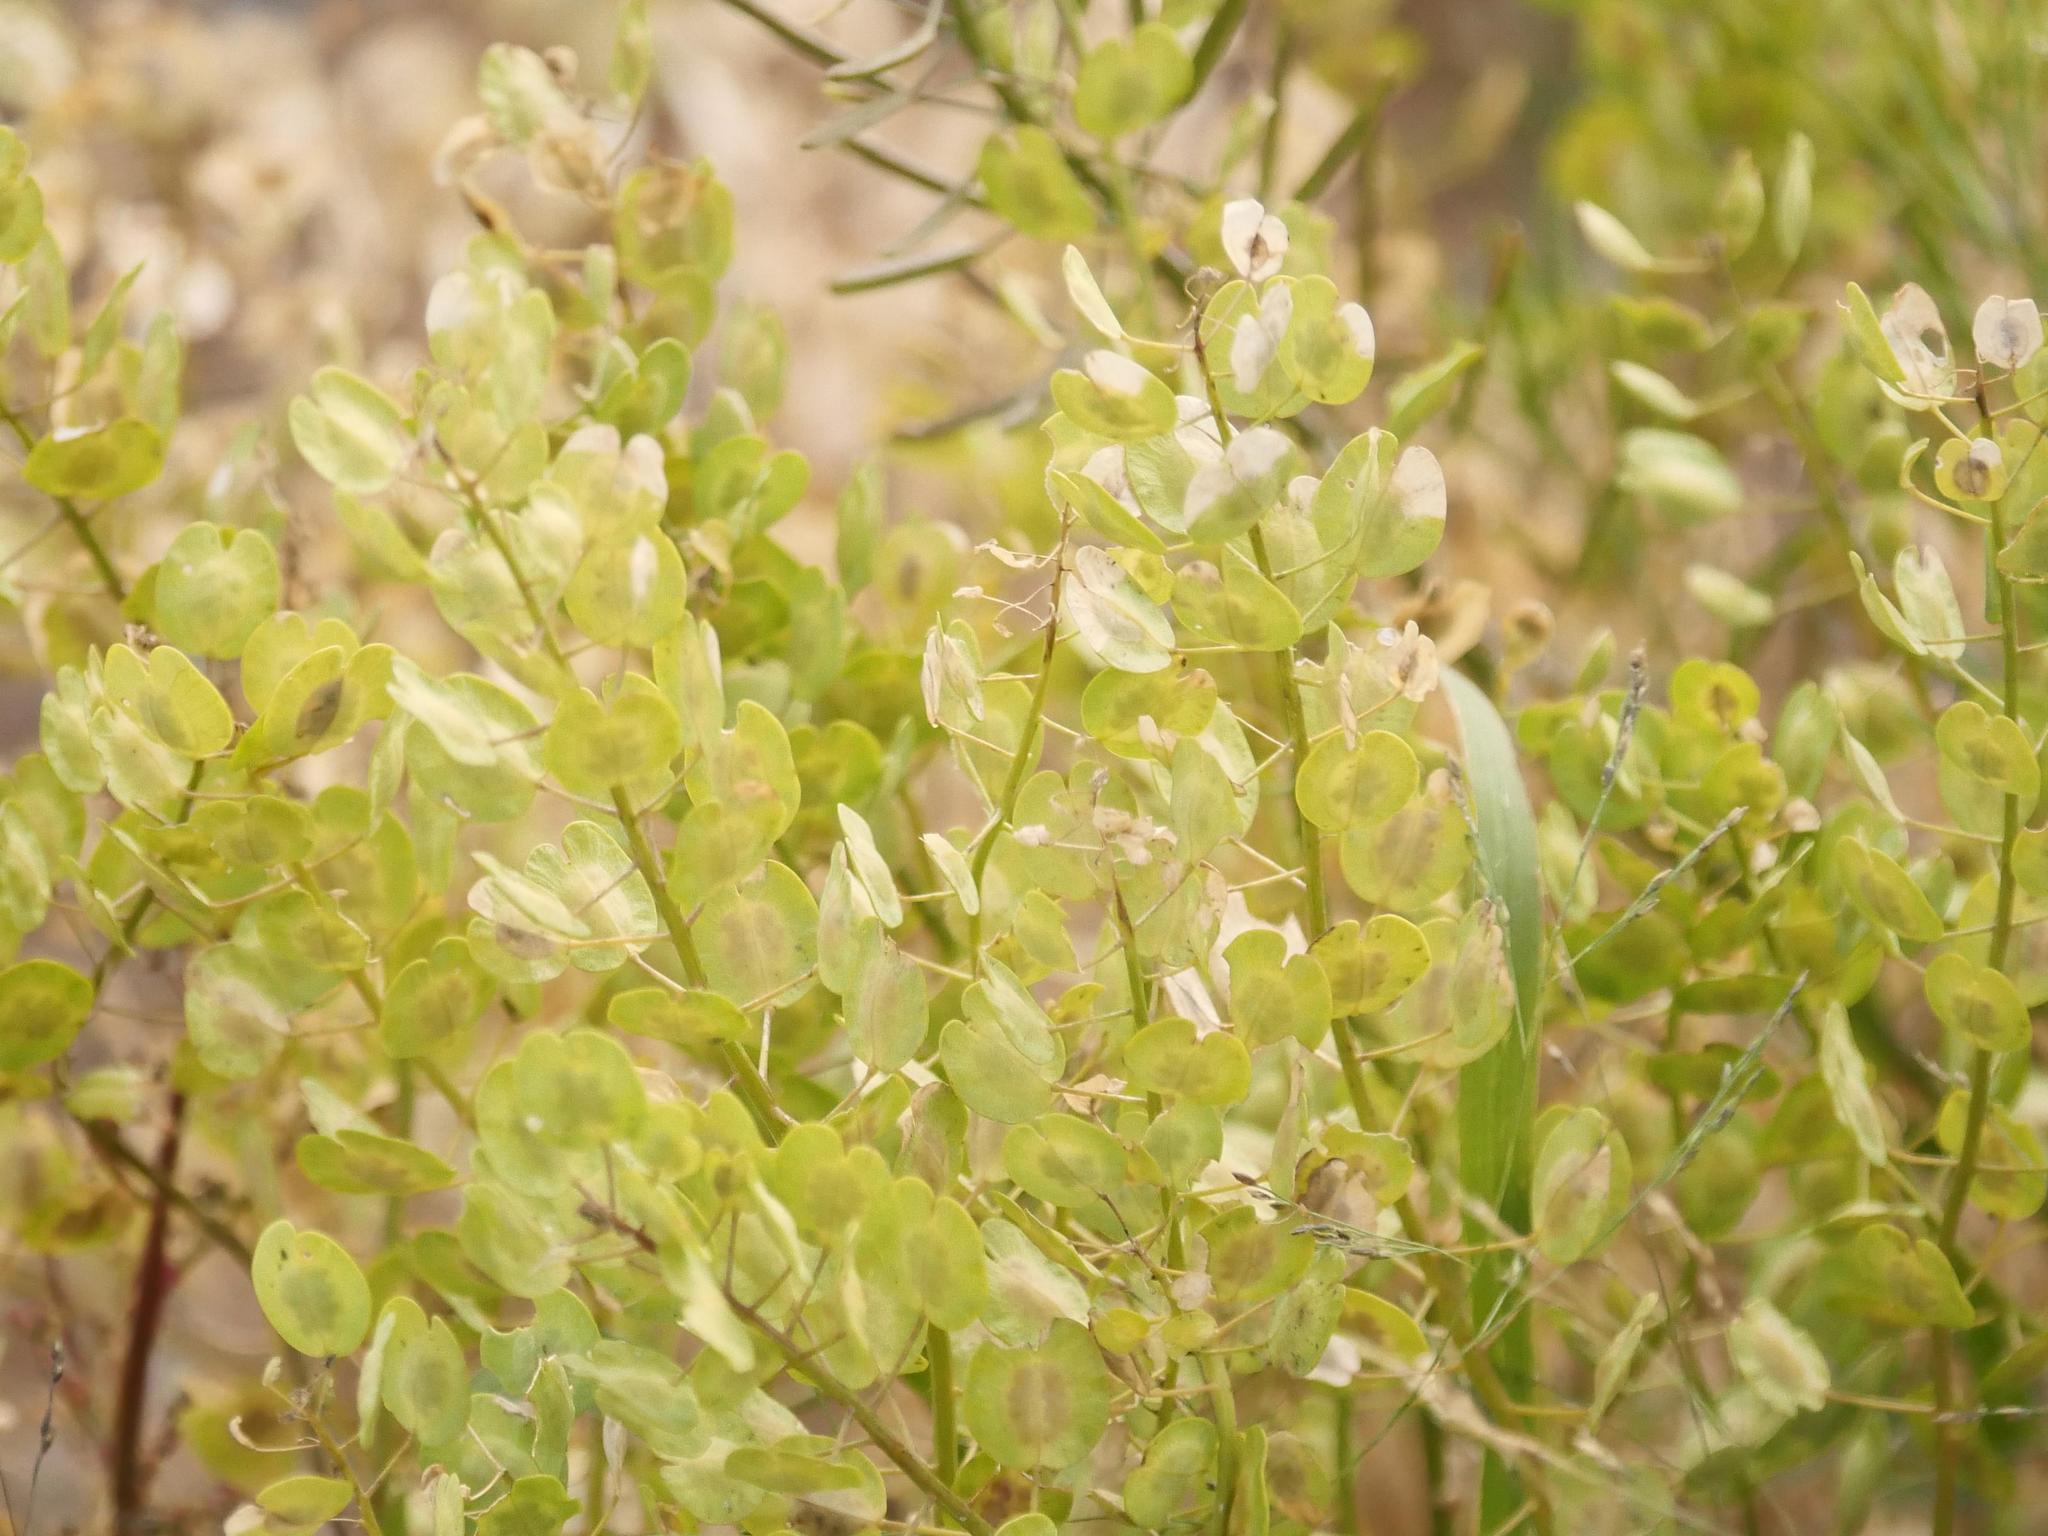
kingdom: Plantae
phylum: Tracheophyta
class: Magnoliopsida
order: Brassicales
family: Brassicaceae
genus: Thlaspi
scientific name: Thlaspi arvense
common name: Field pennycress
